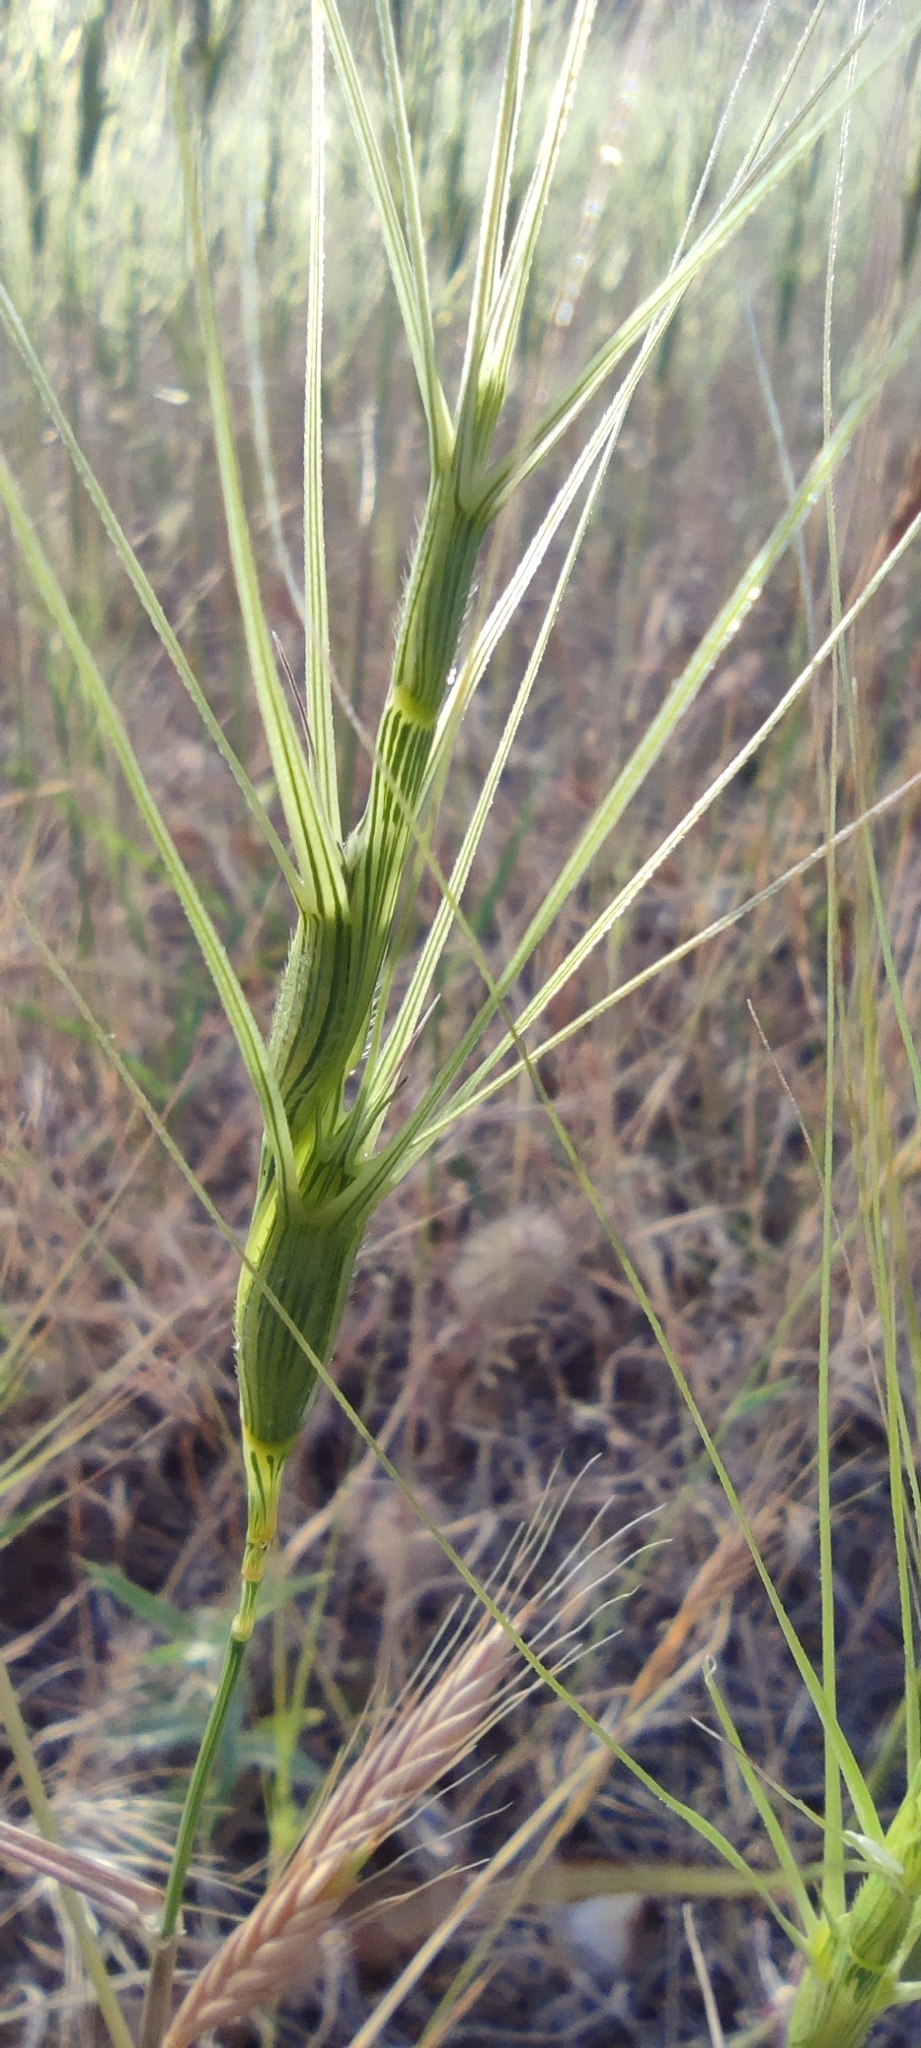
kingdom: Plantae
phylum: Tracheophyta
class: Liliopsida
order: Poales
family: Poaceae
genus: Aegilops
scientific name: Aegilops triuncialis
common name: Barb goat grass
